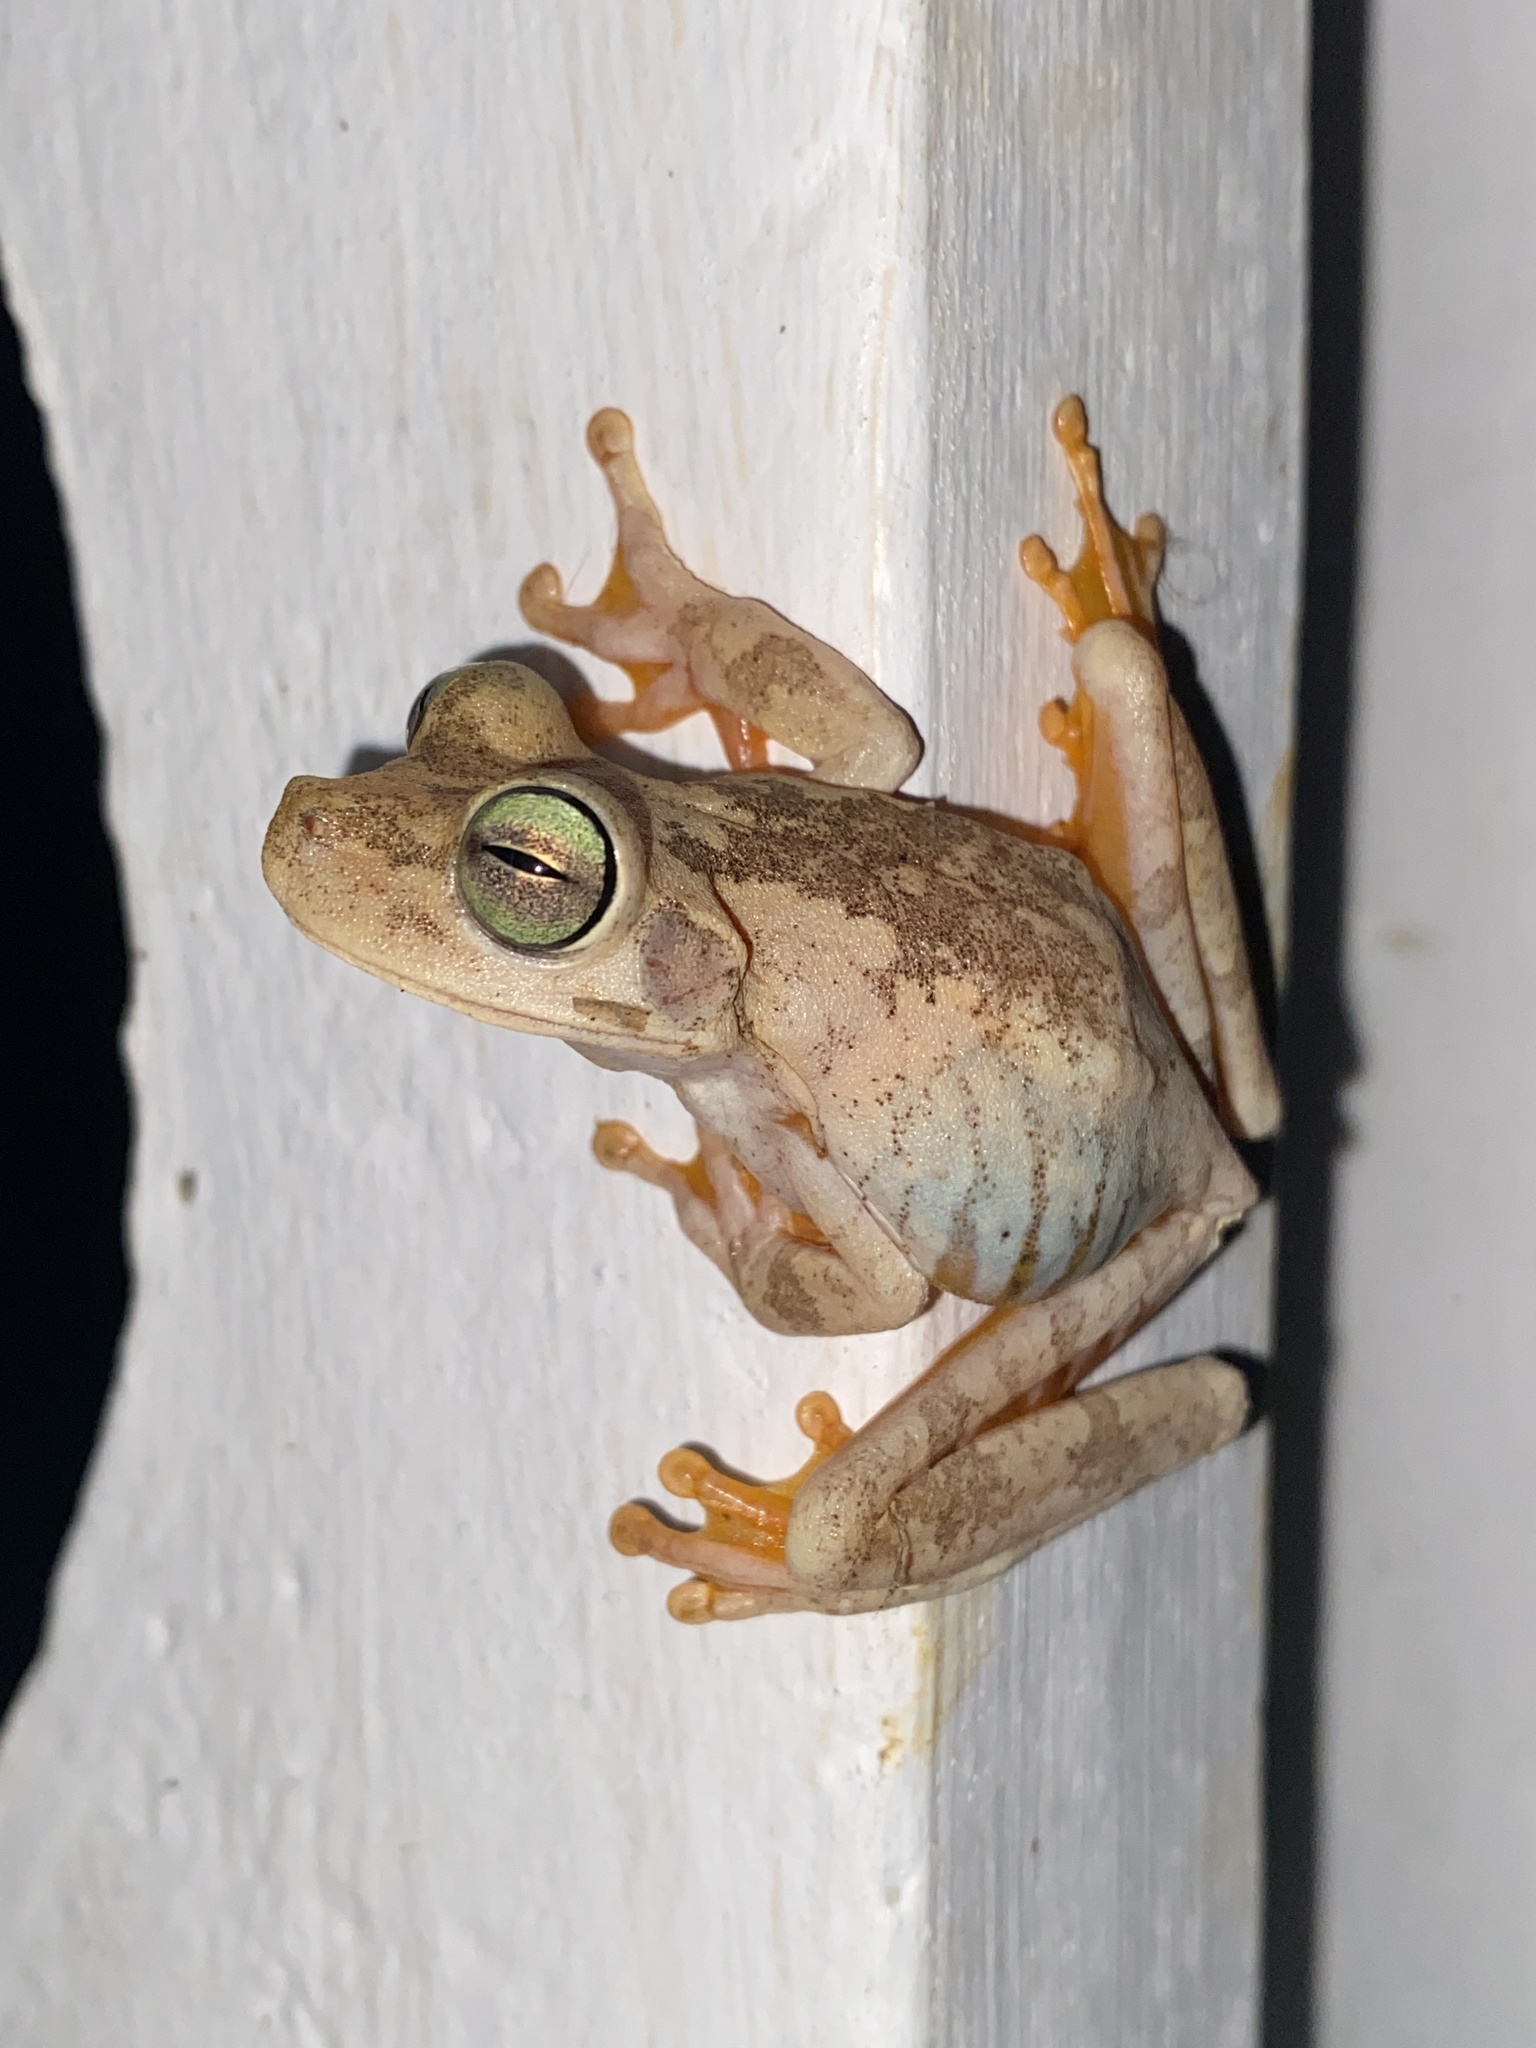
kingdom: Animalia
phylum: Chordata
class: Amphibia
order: Anura
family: Hylidae
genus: Boana
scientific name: Boana platanera
